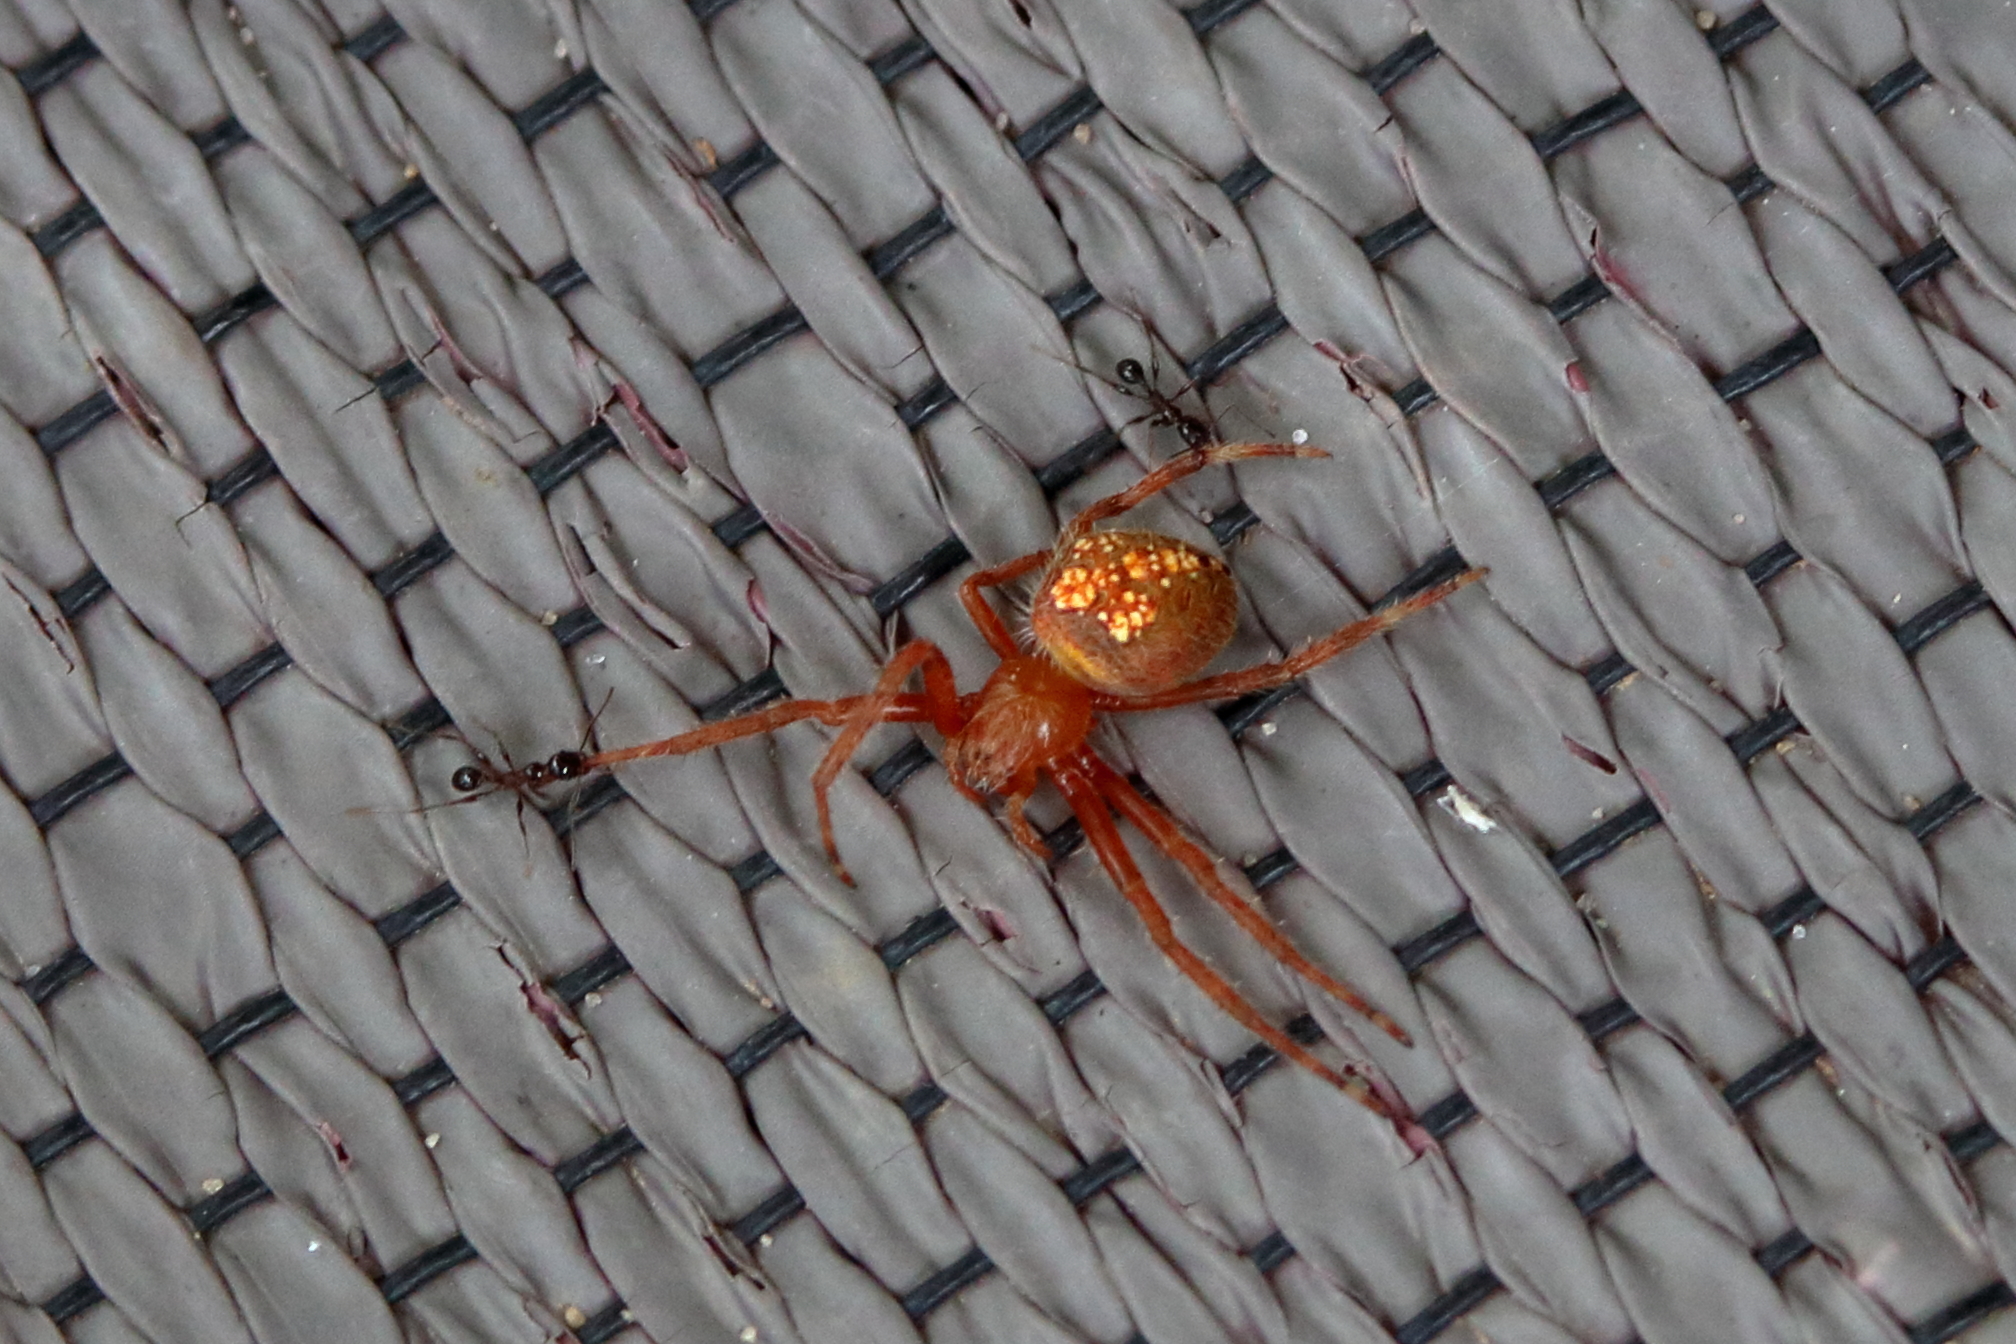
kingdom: Animalia
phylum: Arthropoda
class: Arachnida
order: Araneae
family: Araneidae
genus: Eriophora
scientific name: Eriophora ravilla
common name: Orb weavers
